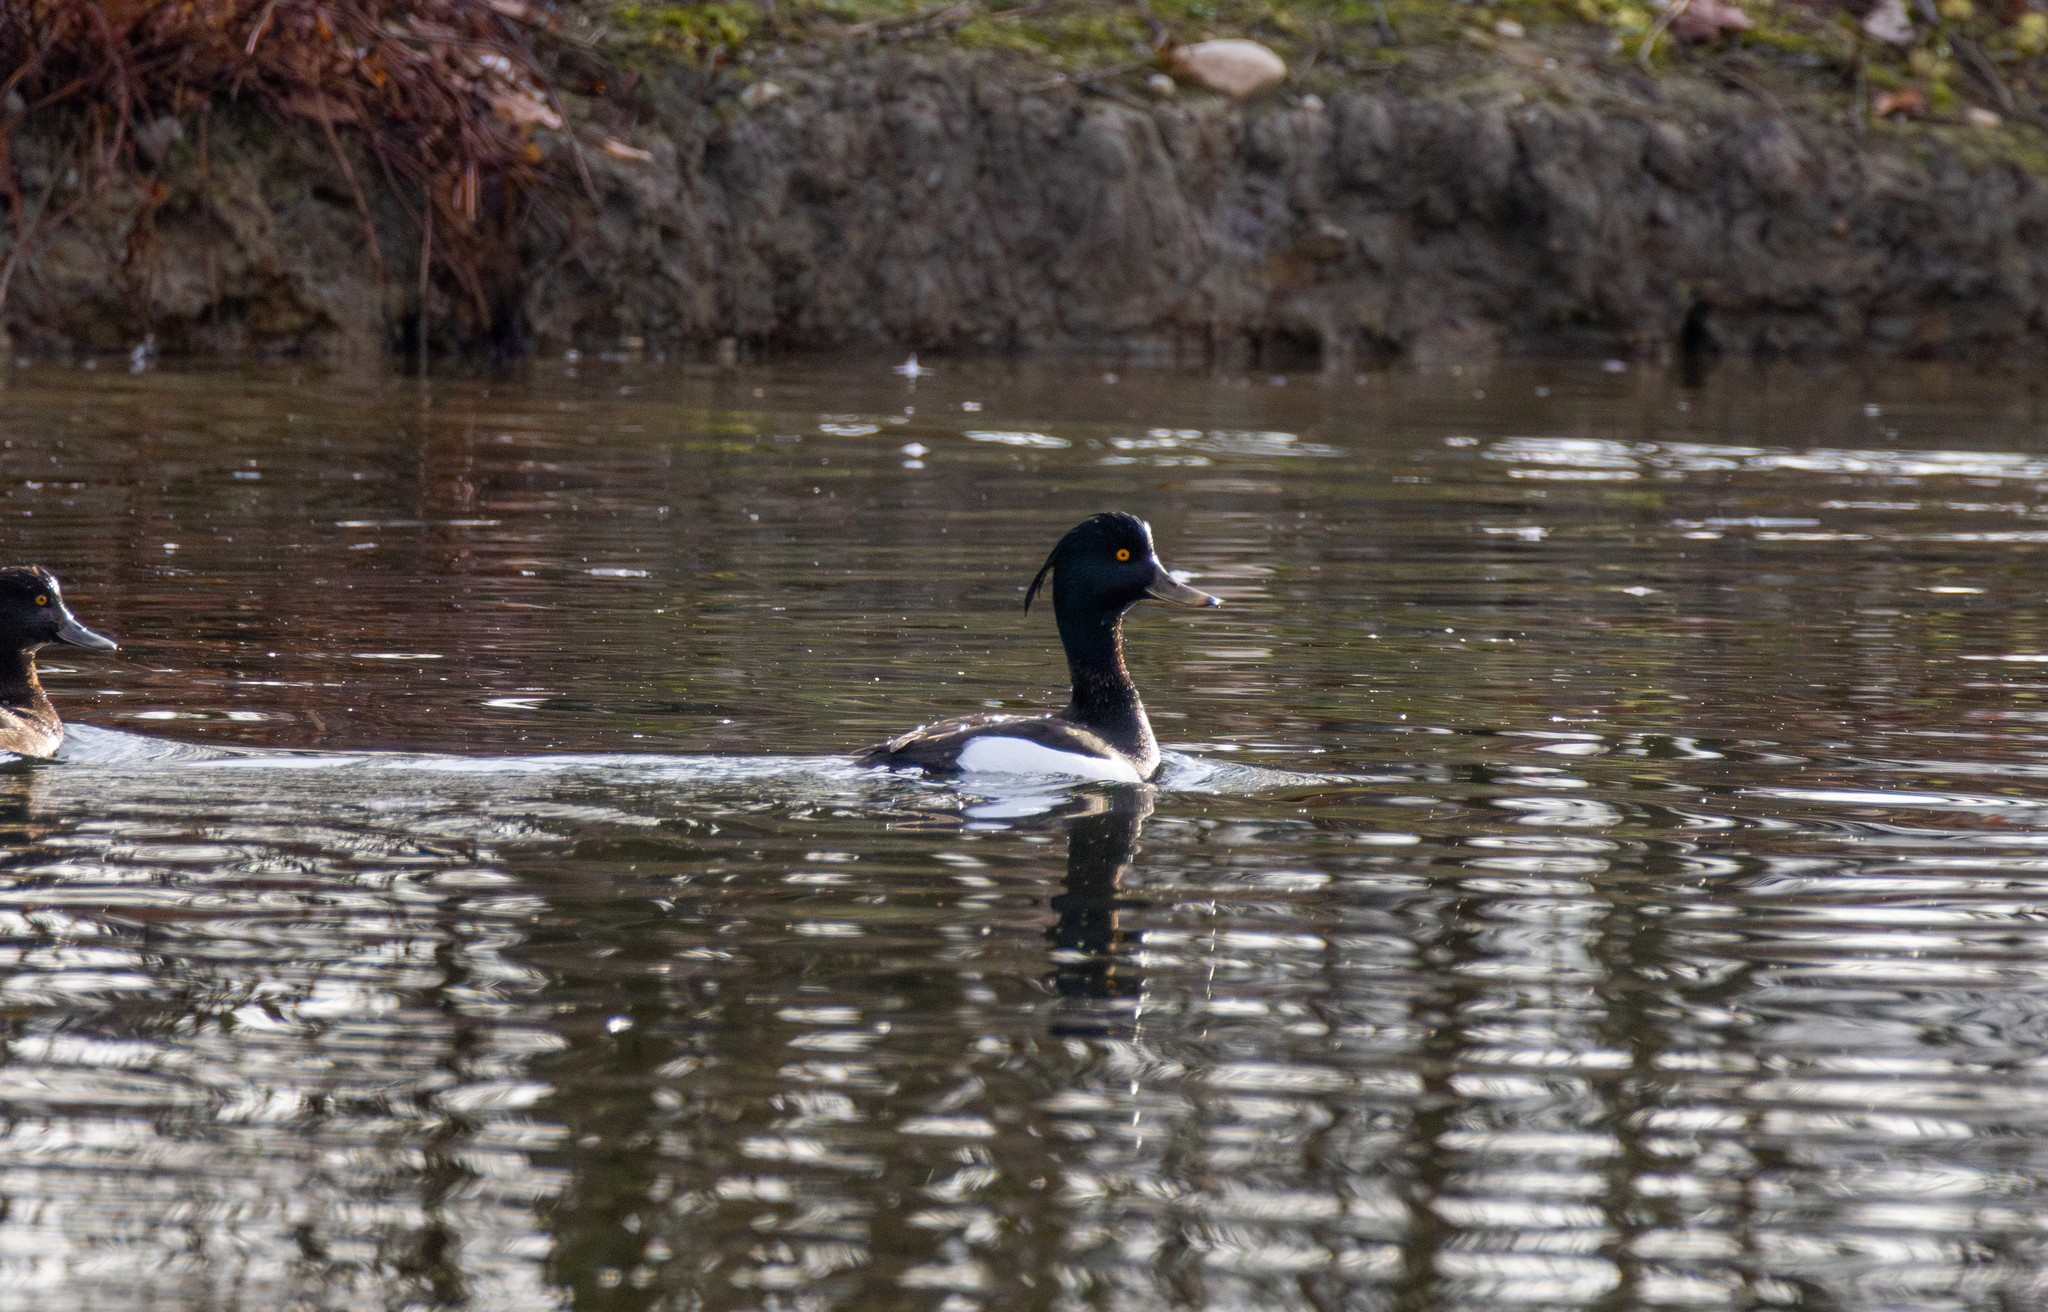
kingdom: Animalia
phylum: Chordata
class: Aves
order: Anseriformes
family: Anatidae
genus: Aythya
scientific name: Aythya fuligula
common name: Tufted duck
